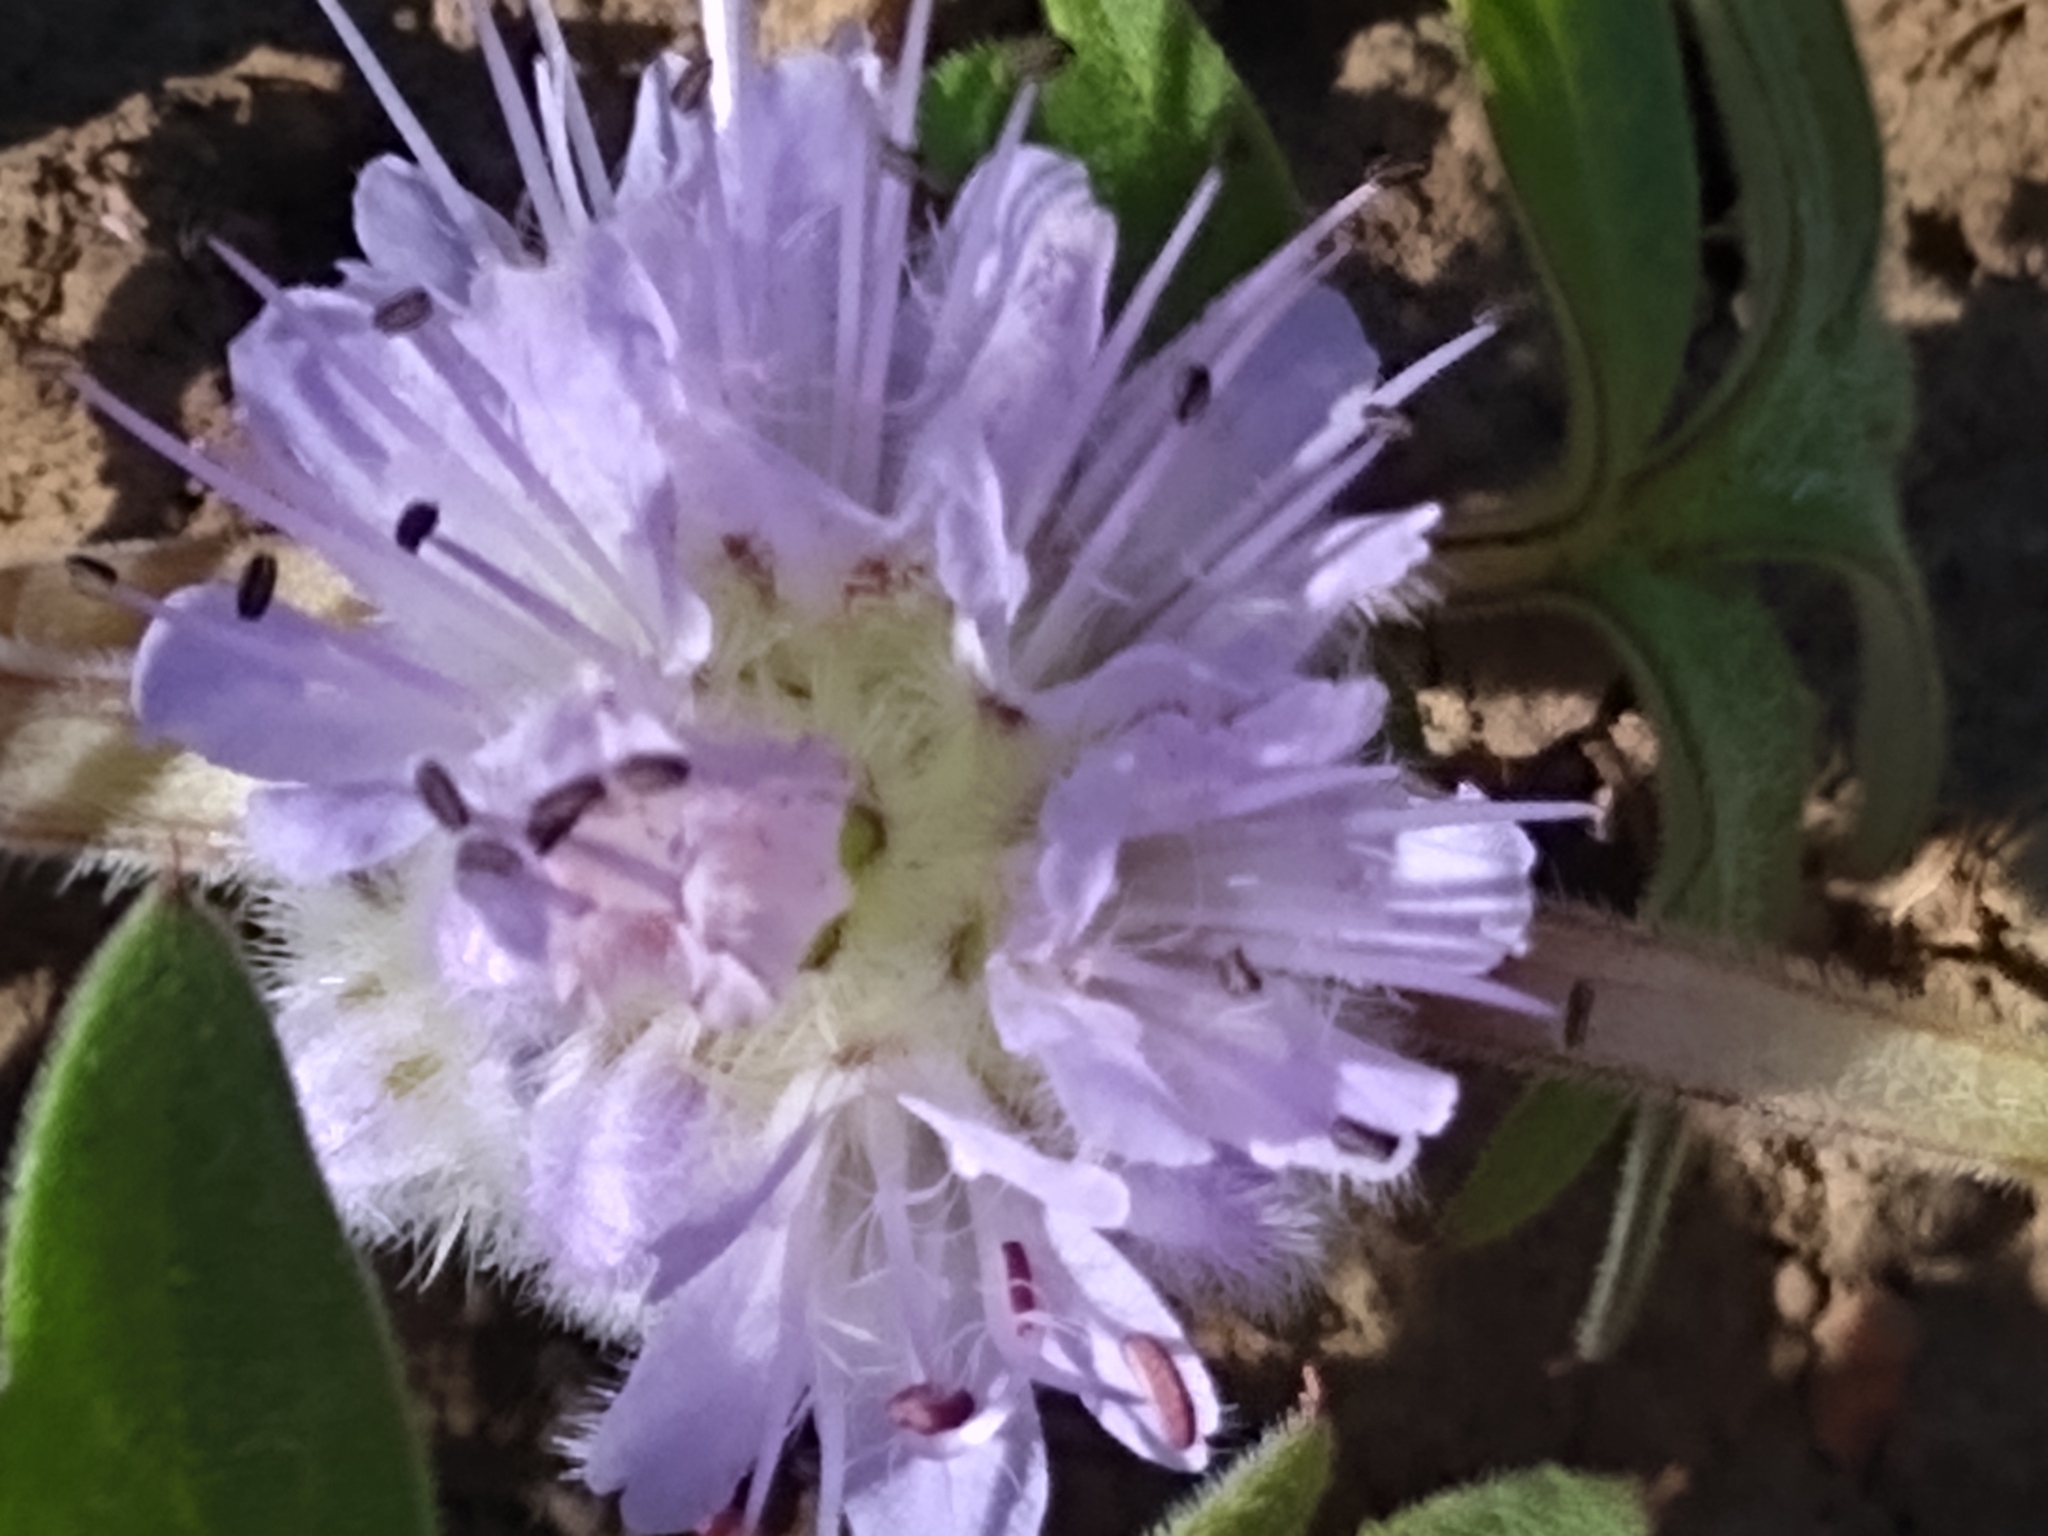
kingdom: Plantae
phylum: Tracheophyta
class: Magnoliopsida
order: Boraginales
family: Hydrophyllaceae
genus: Hydrophyllum
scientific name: Hydrophyllum capitatum
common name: Woollen-breeches
